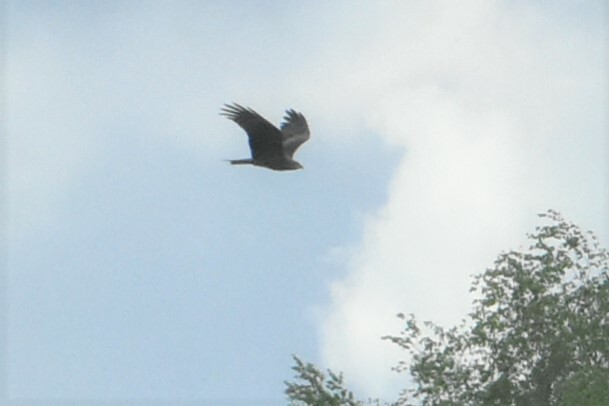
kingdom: Animalia
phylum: Chordata
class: Aves
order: Accipitriformes
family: Accipitridae
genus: Milvus
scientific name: Milvus migrans
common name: Black kite
